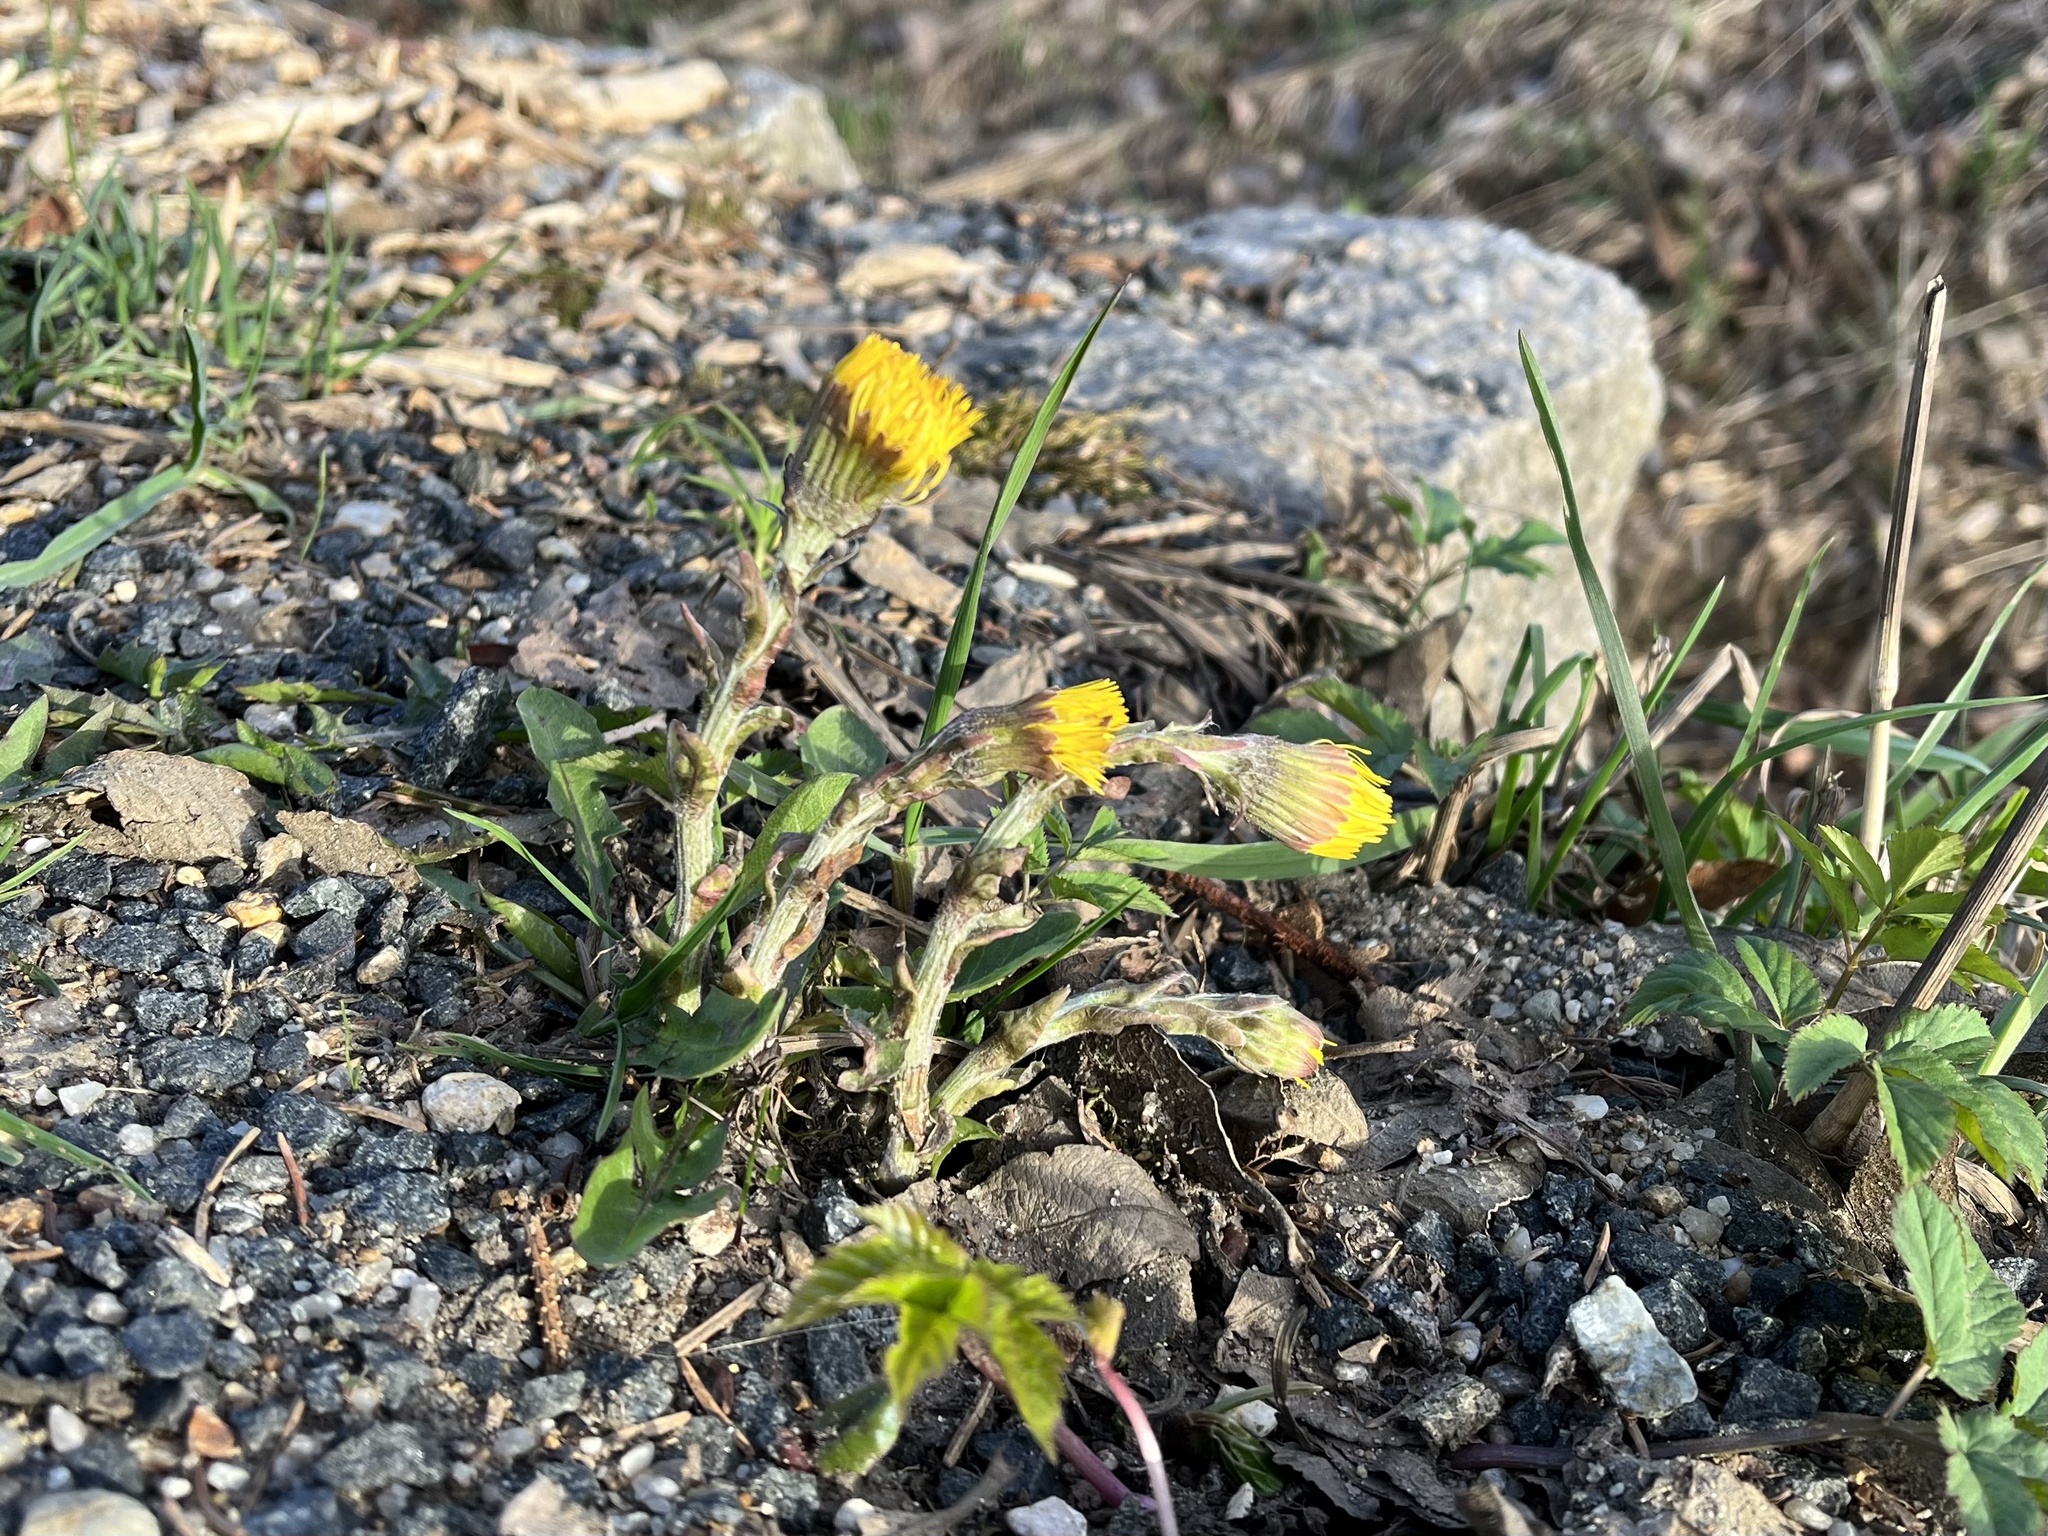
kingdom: Plantae
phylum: Tracheophyta
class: Magnoliopsida
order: Asterales
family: Asteraceae
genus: Tussilago
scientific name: Tussilago farfara
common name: Coltsfoot
